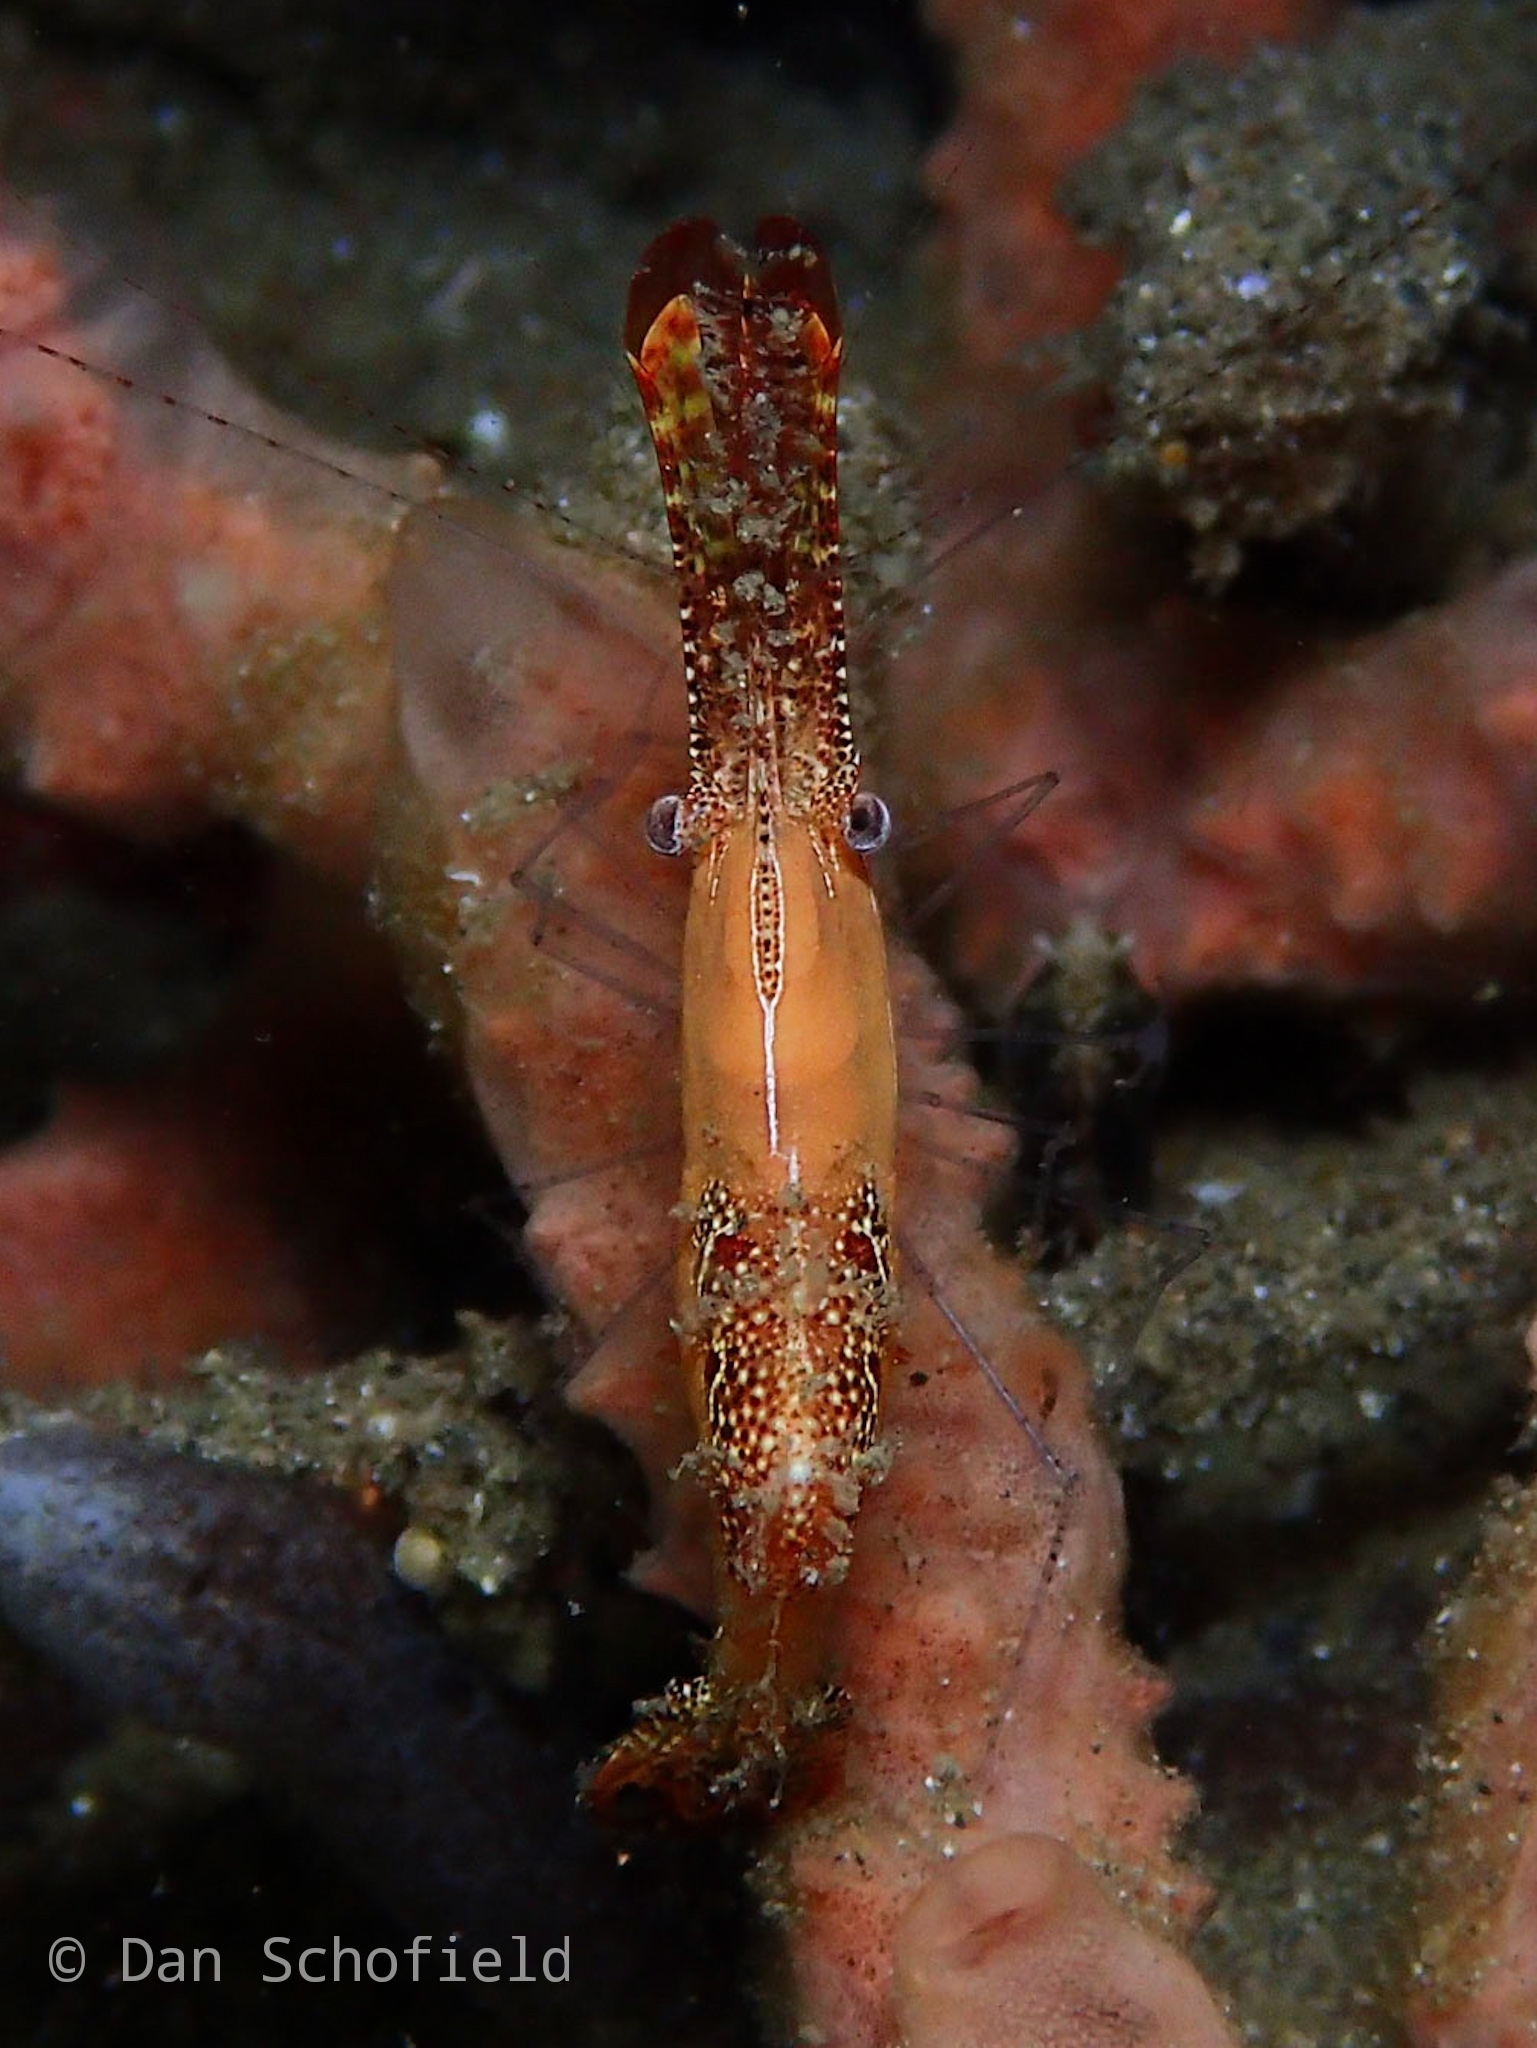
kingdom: Animalia
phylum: Arthropoda
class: Malacostraca
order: Decapoda
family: Palaemonidae
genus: Leander
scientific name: Leander plumosus
